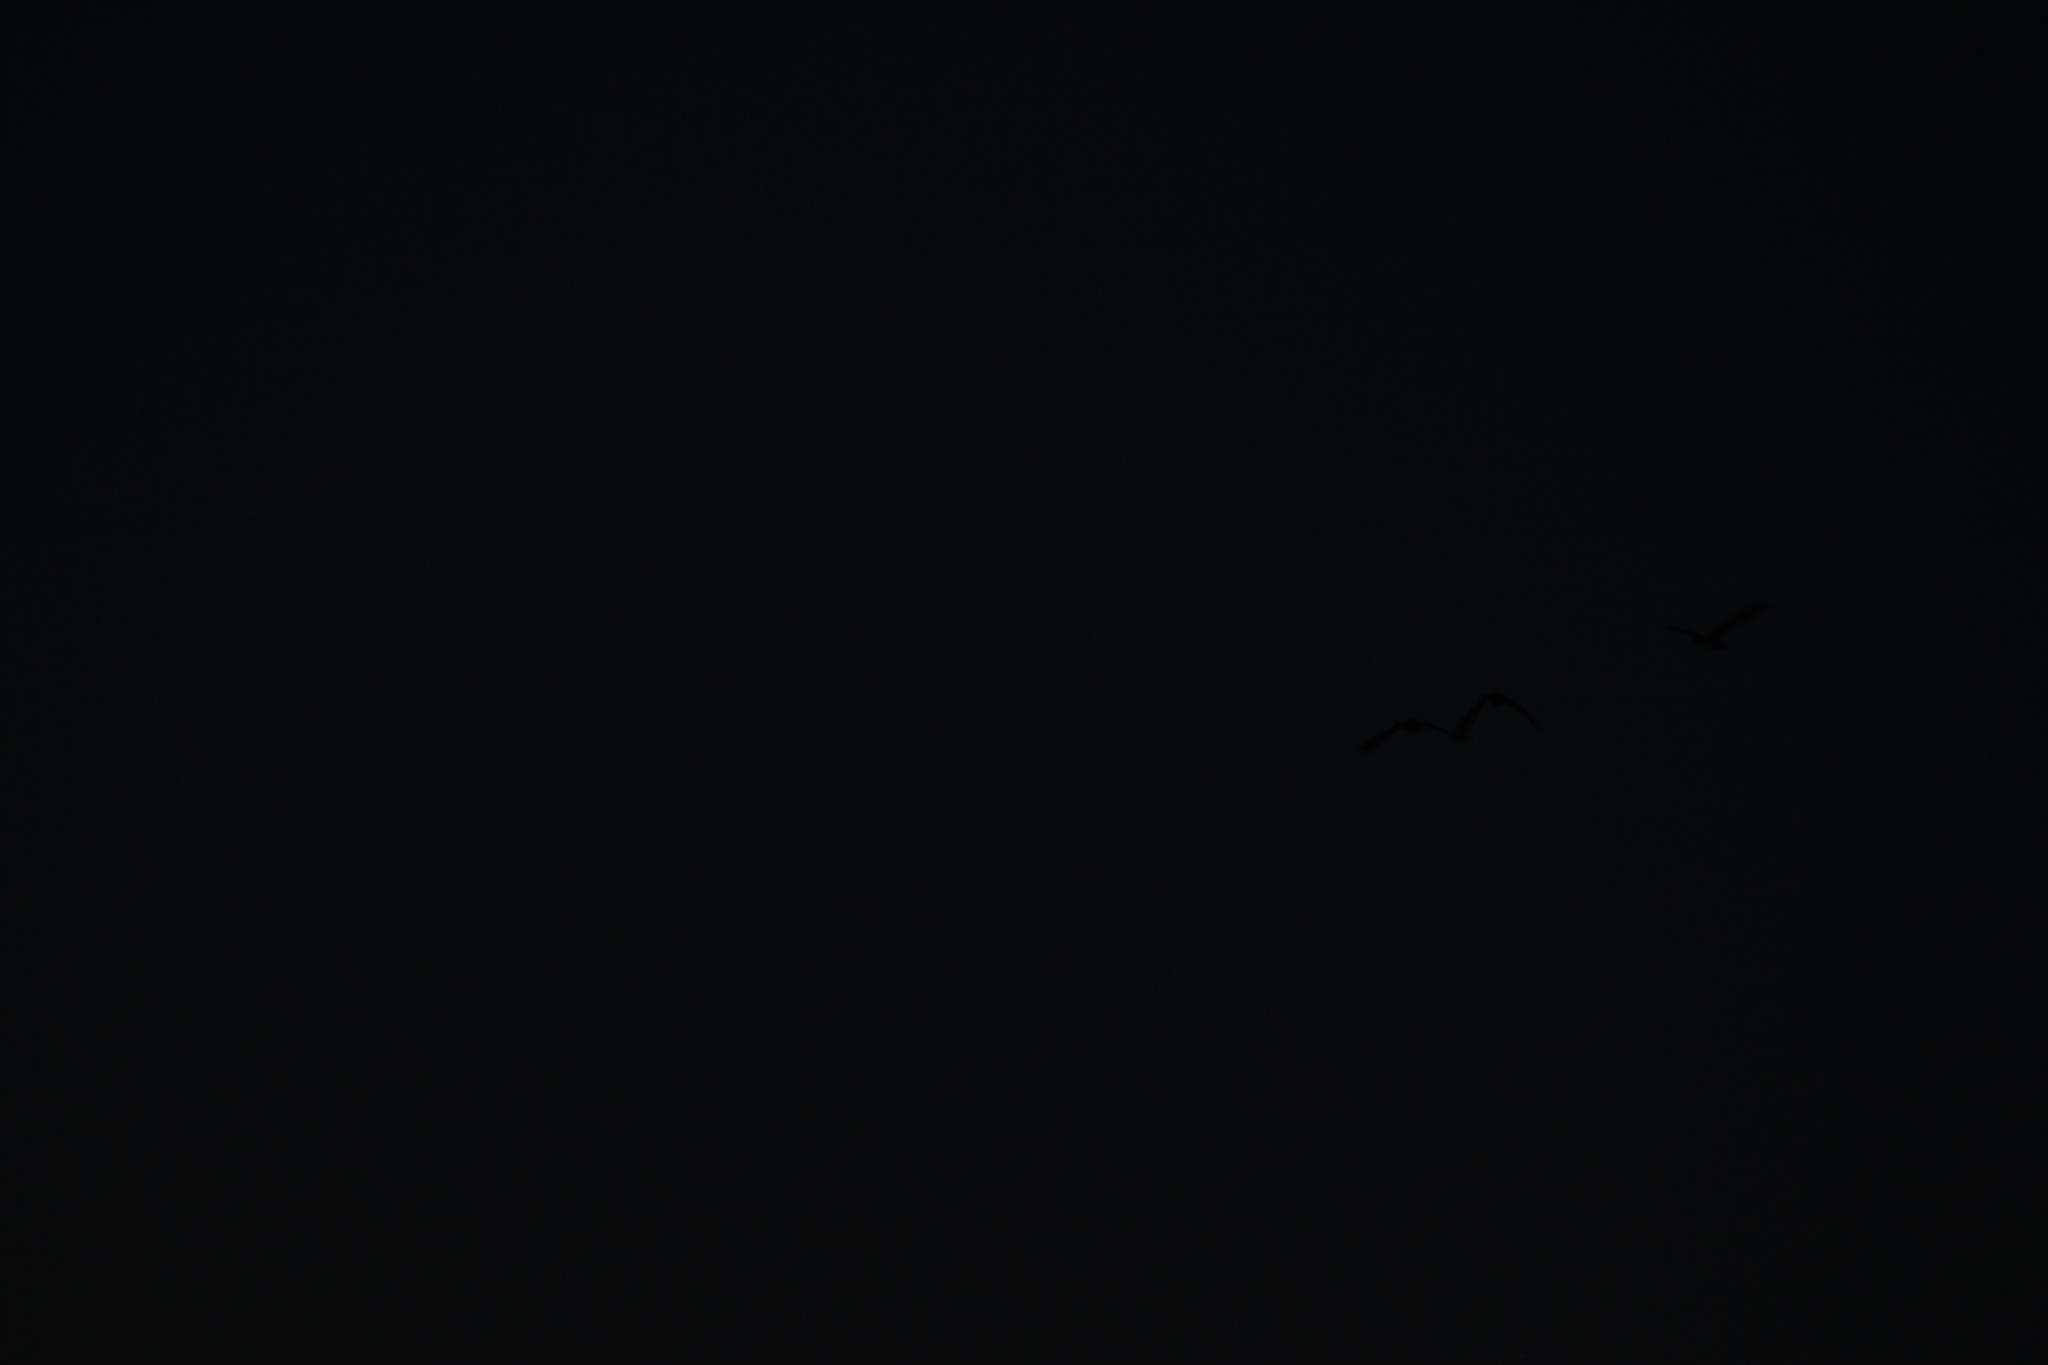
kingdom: Animalia
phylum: Chordata
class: Aves
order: Pelecaniformes
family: Ardeidae
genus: Nycticorax
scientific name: Nycticorax caledonicus
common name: Rufous night-heron
